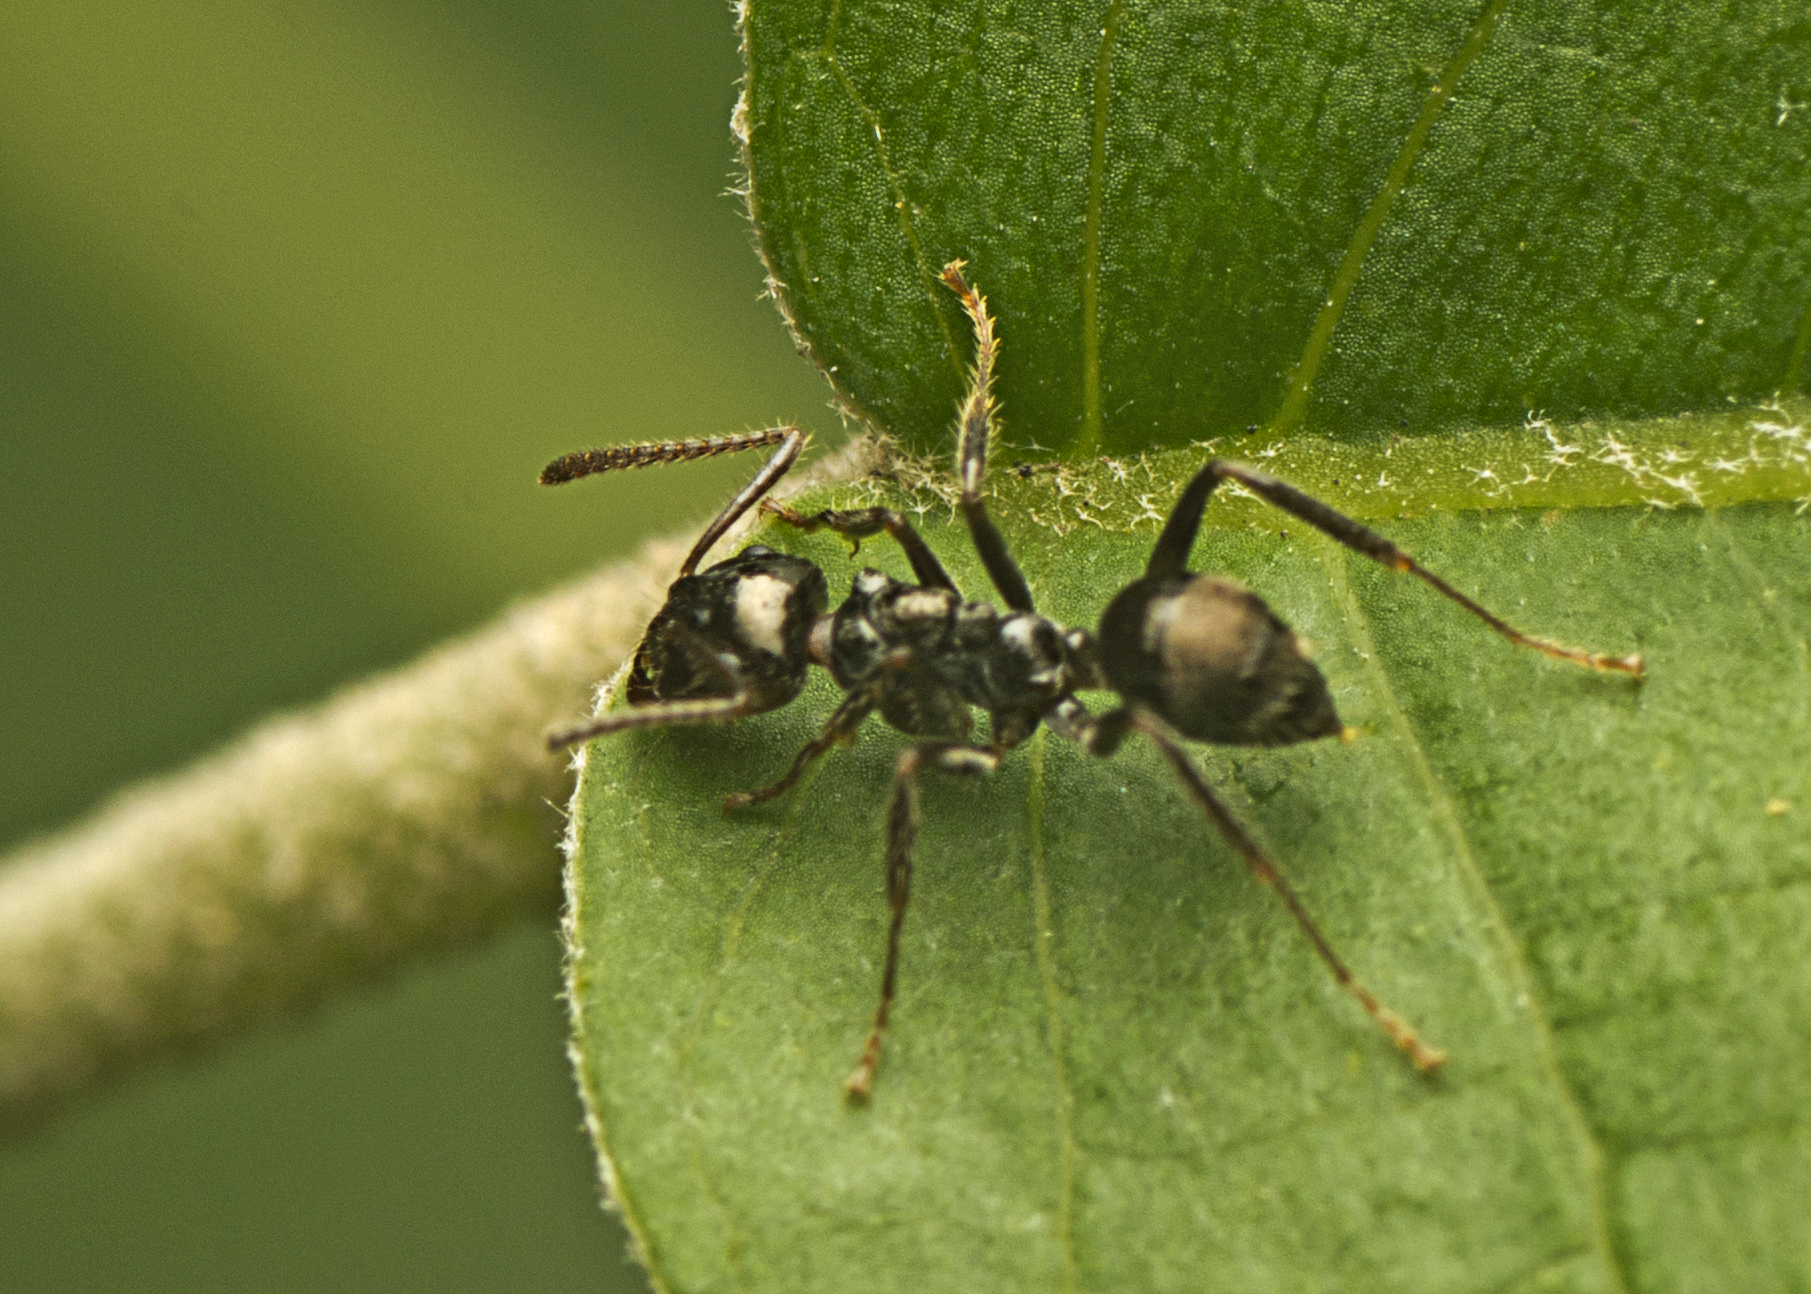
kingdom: Animalia
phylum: Arthropoda
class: Insecta
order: Hymenoptera
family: Formicidae
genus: Notoncus
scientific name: Notoncus capitatus
